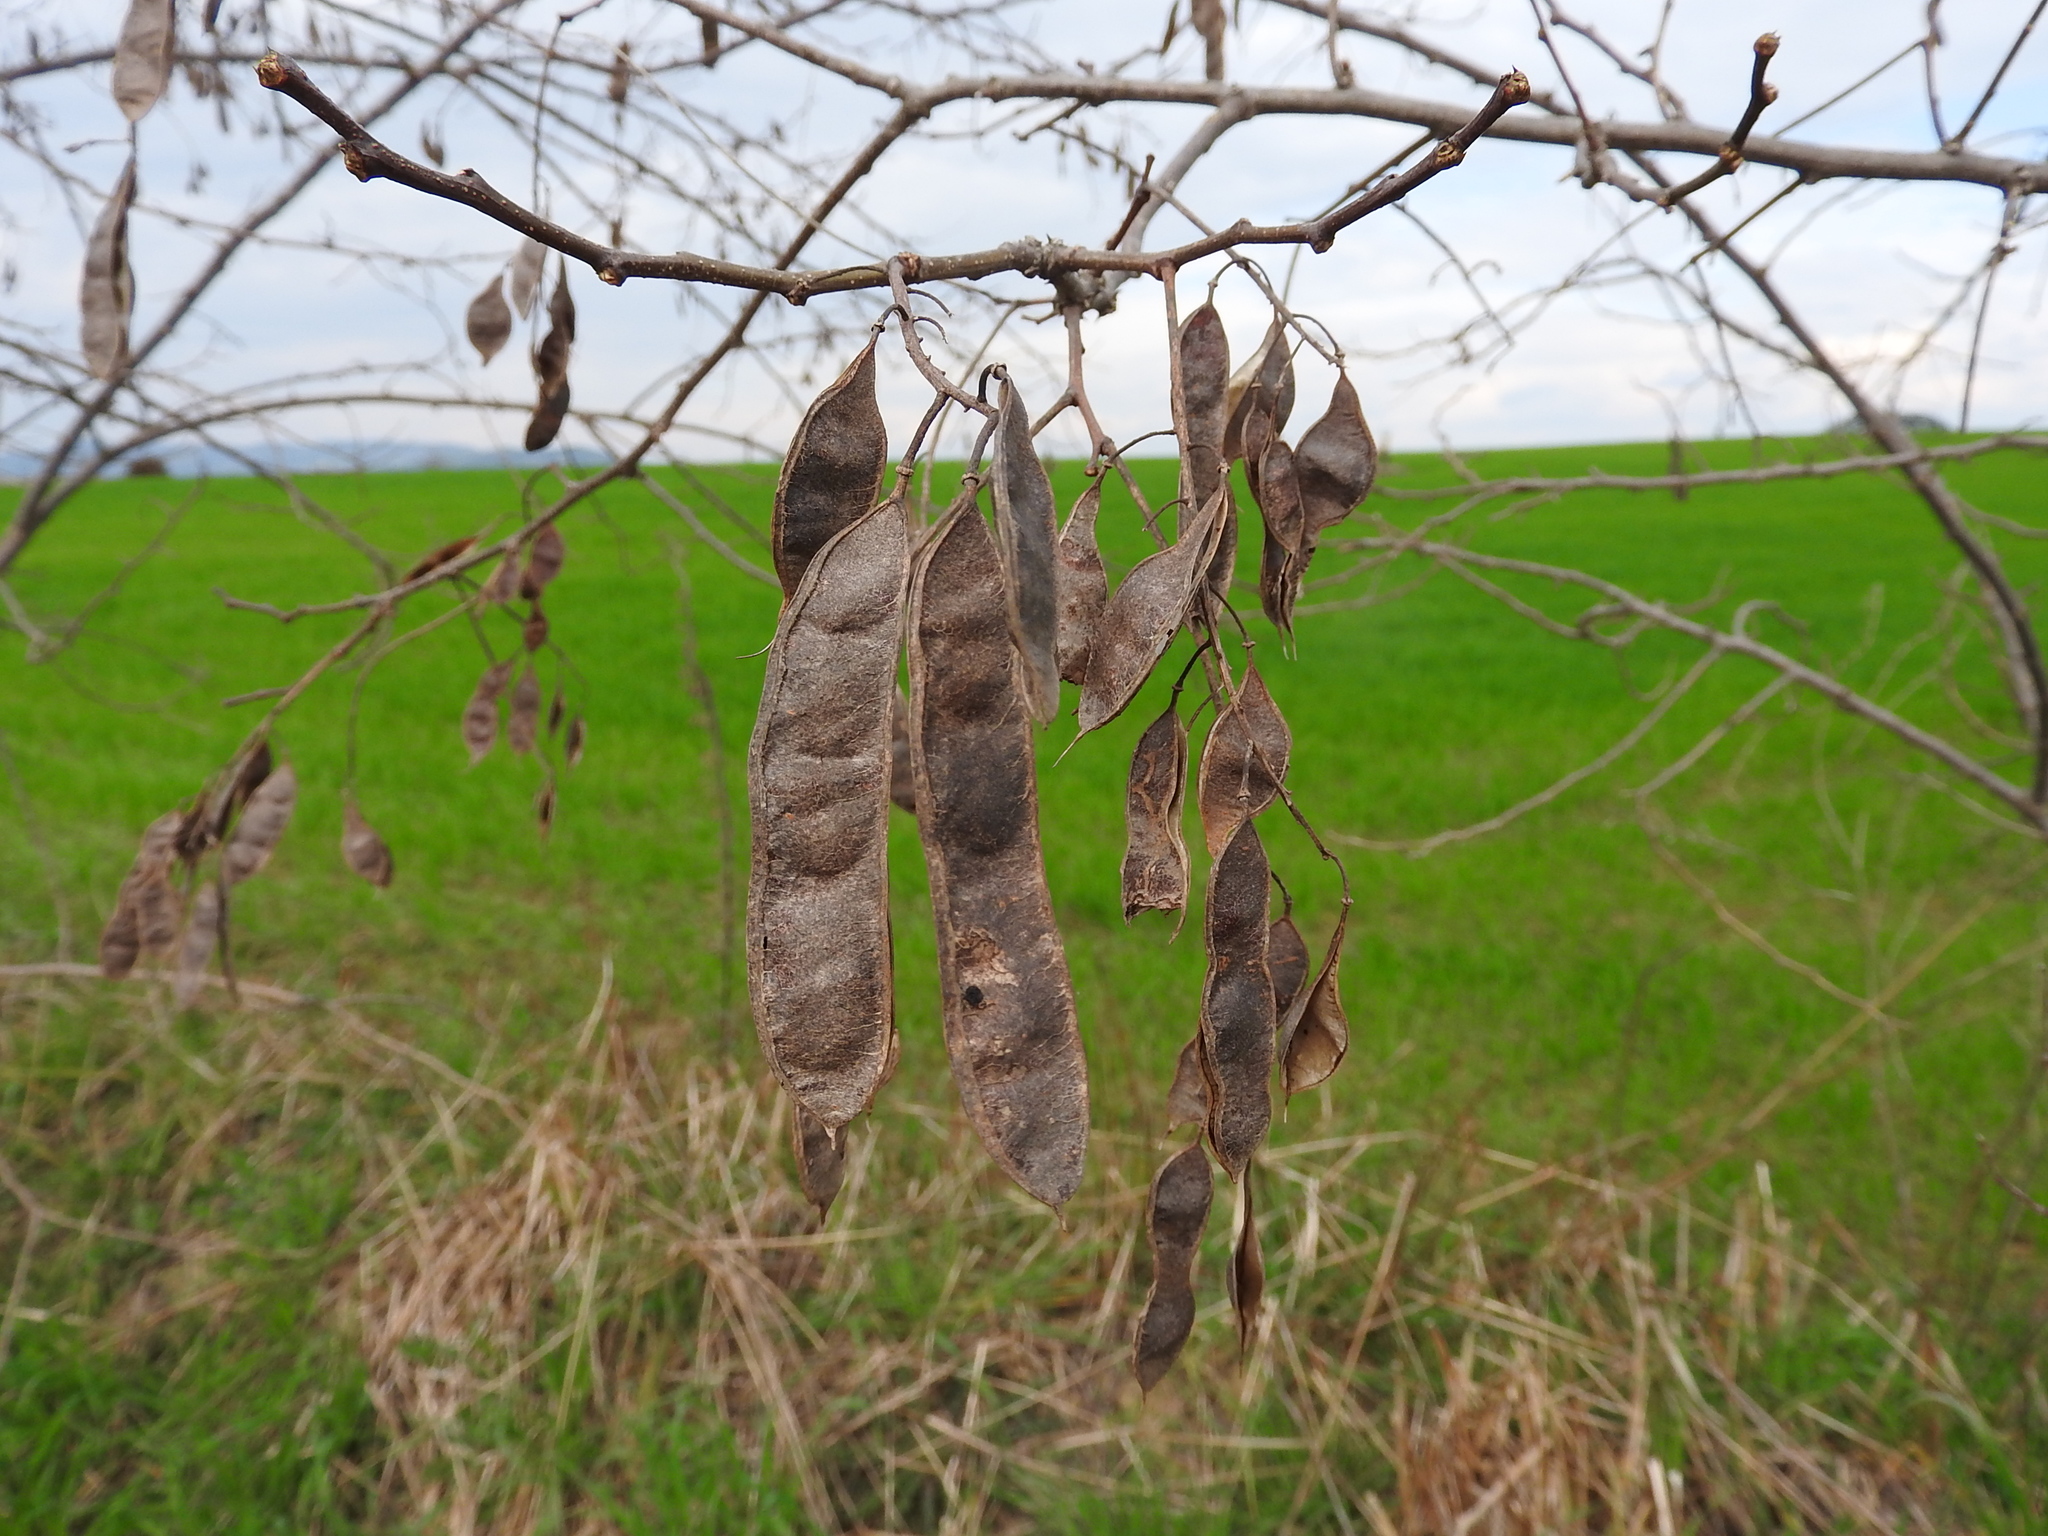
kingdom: Plantae
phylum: Tracheophyta
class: Magnoliopsida
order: Fabales
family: Fabaceae
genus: Robinia
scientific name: Robinia pseudoacacia
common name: Black locust
